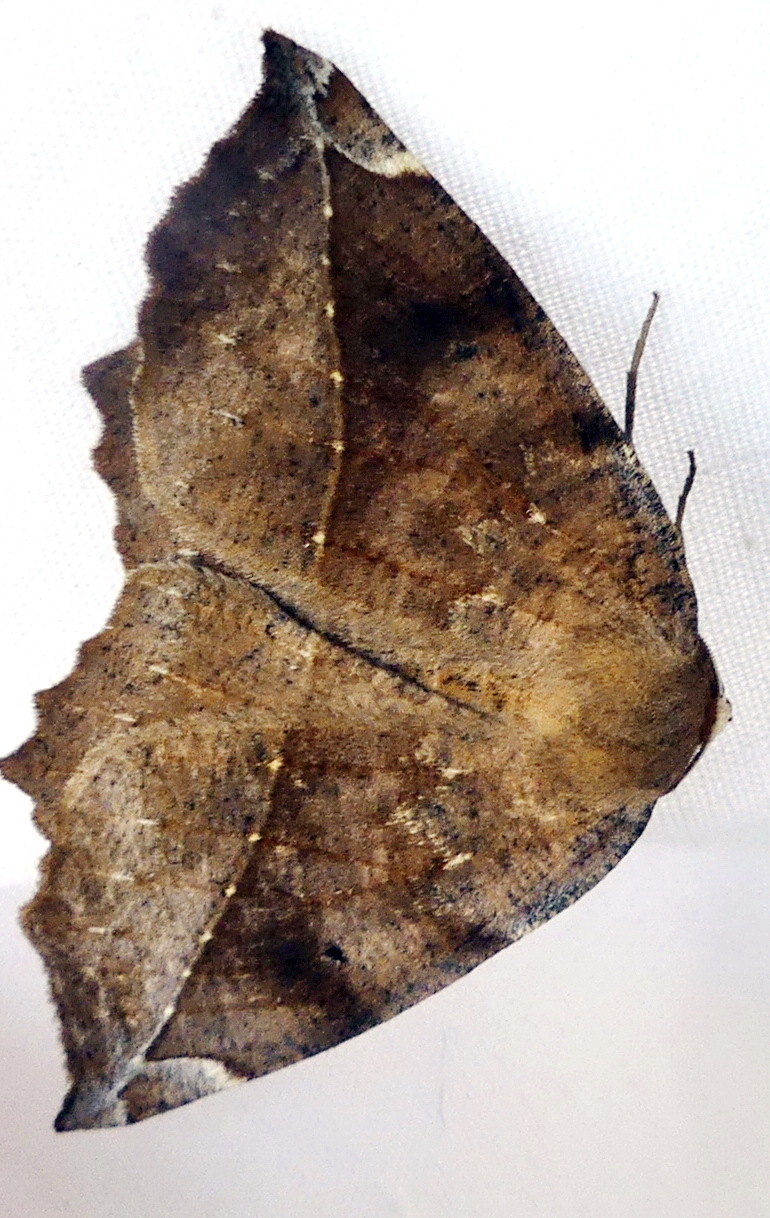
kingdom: Animalia
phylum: Arthropoda
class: Insecta
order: Lepidoptera
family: Geometridae
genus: Eutrapela
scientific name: Eutrapela clemataria
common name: Curved-toothed geometer
